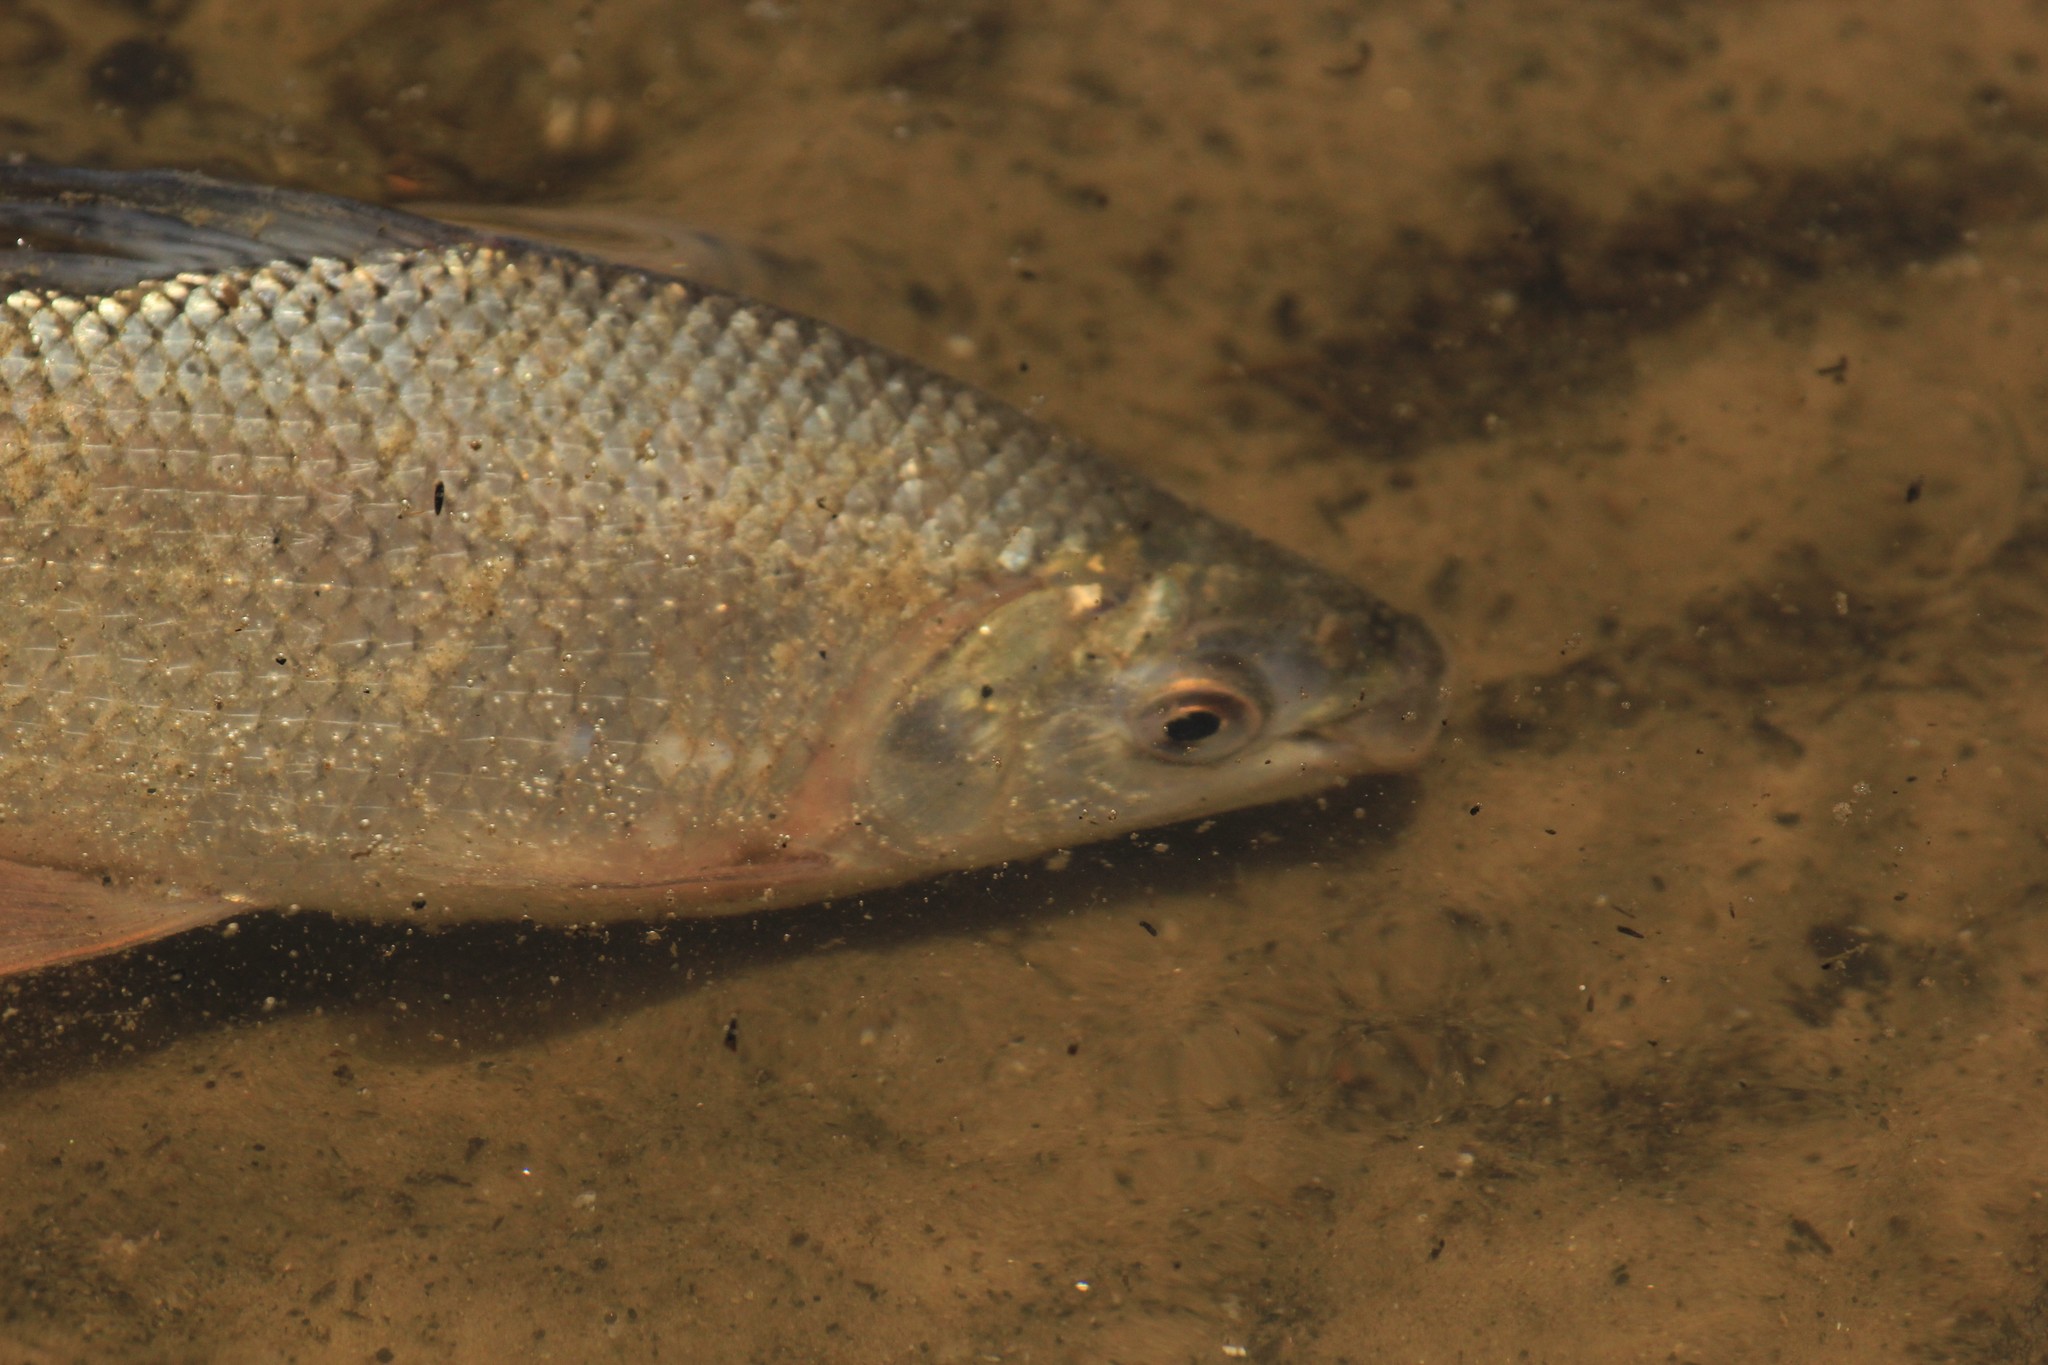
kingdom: Animalia
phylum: Chordata
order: Characiformes
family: Prochilodontidae
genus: Prochilodus
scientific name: Prochilodus lineatus
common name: Curimbata
